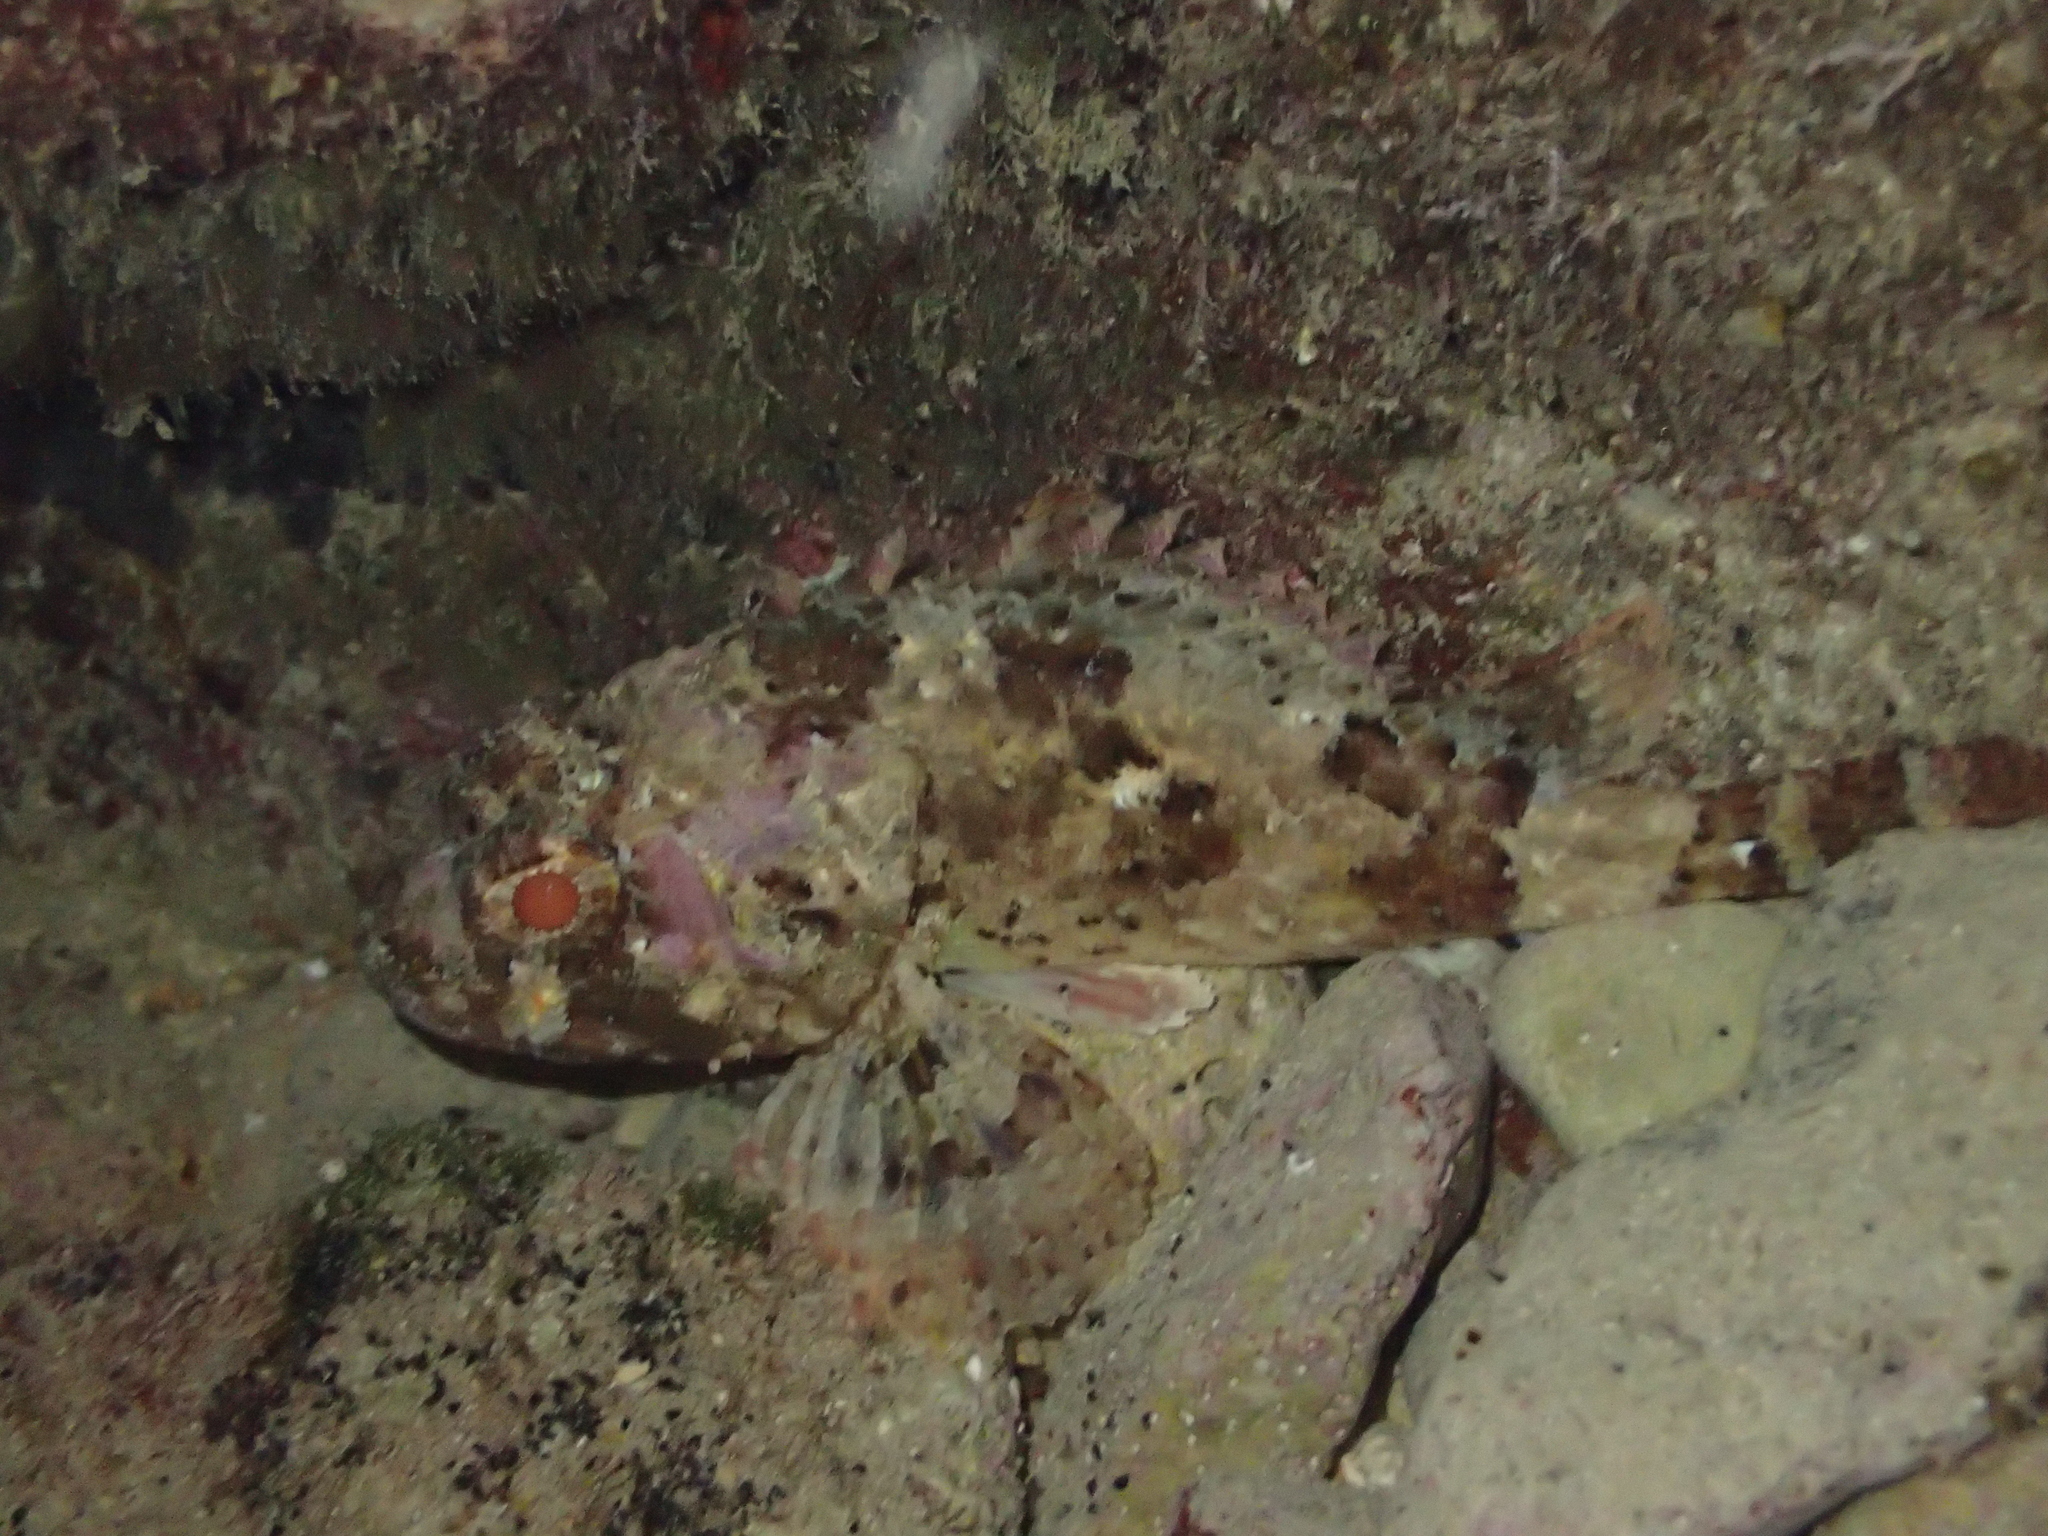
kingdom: Animalia
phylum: Chordata
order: Scorpaeniformes
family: Scorpaenidae
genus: Scorpaena
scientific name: Scorpaena porcus
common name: Black scorpionfish
